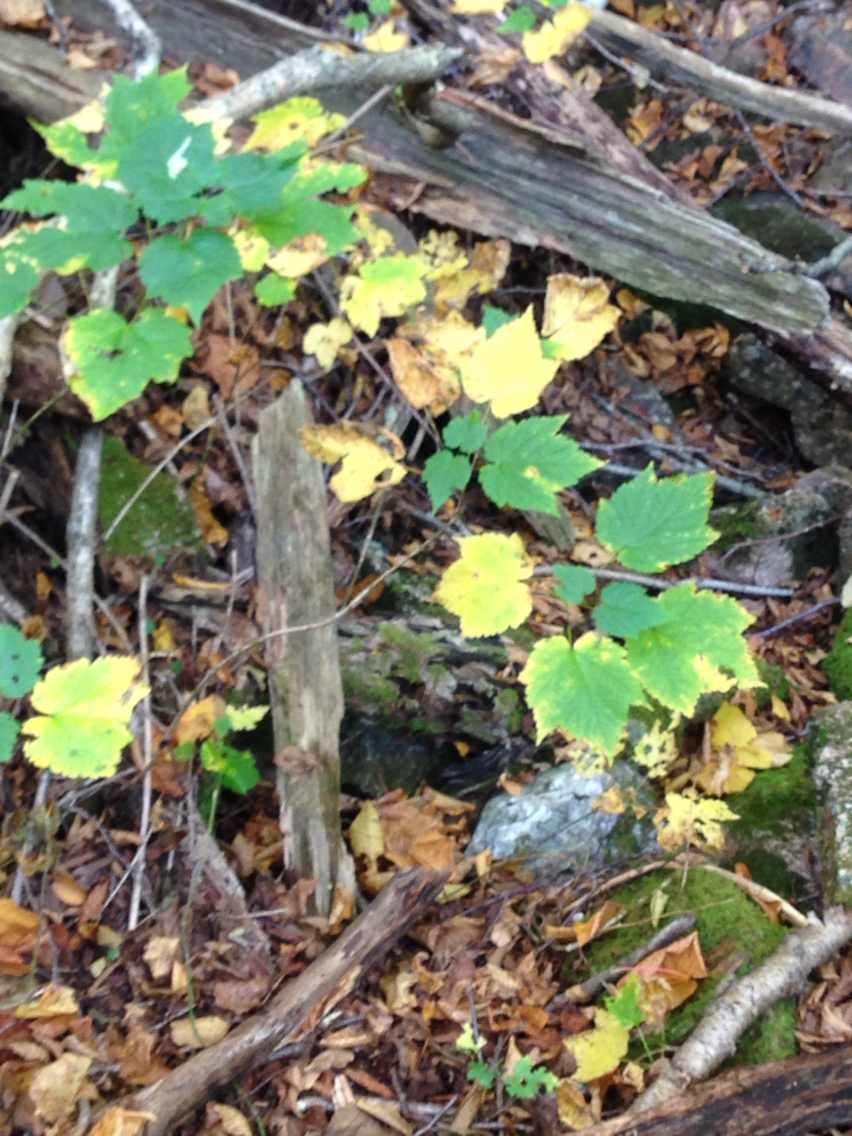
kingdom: Plantae
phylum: Tracheophyta
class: Magnoliopsida
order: Sapindales
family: Sapindaceae
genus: Acer
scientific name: Acer spicatum
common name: Mountain maple
